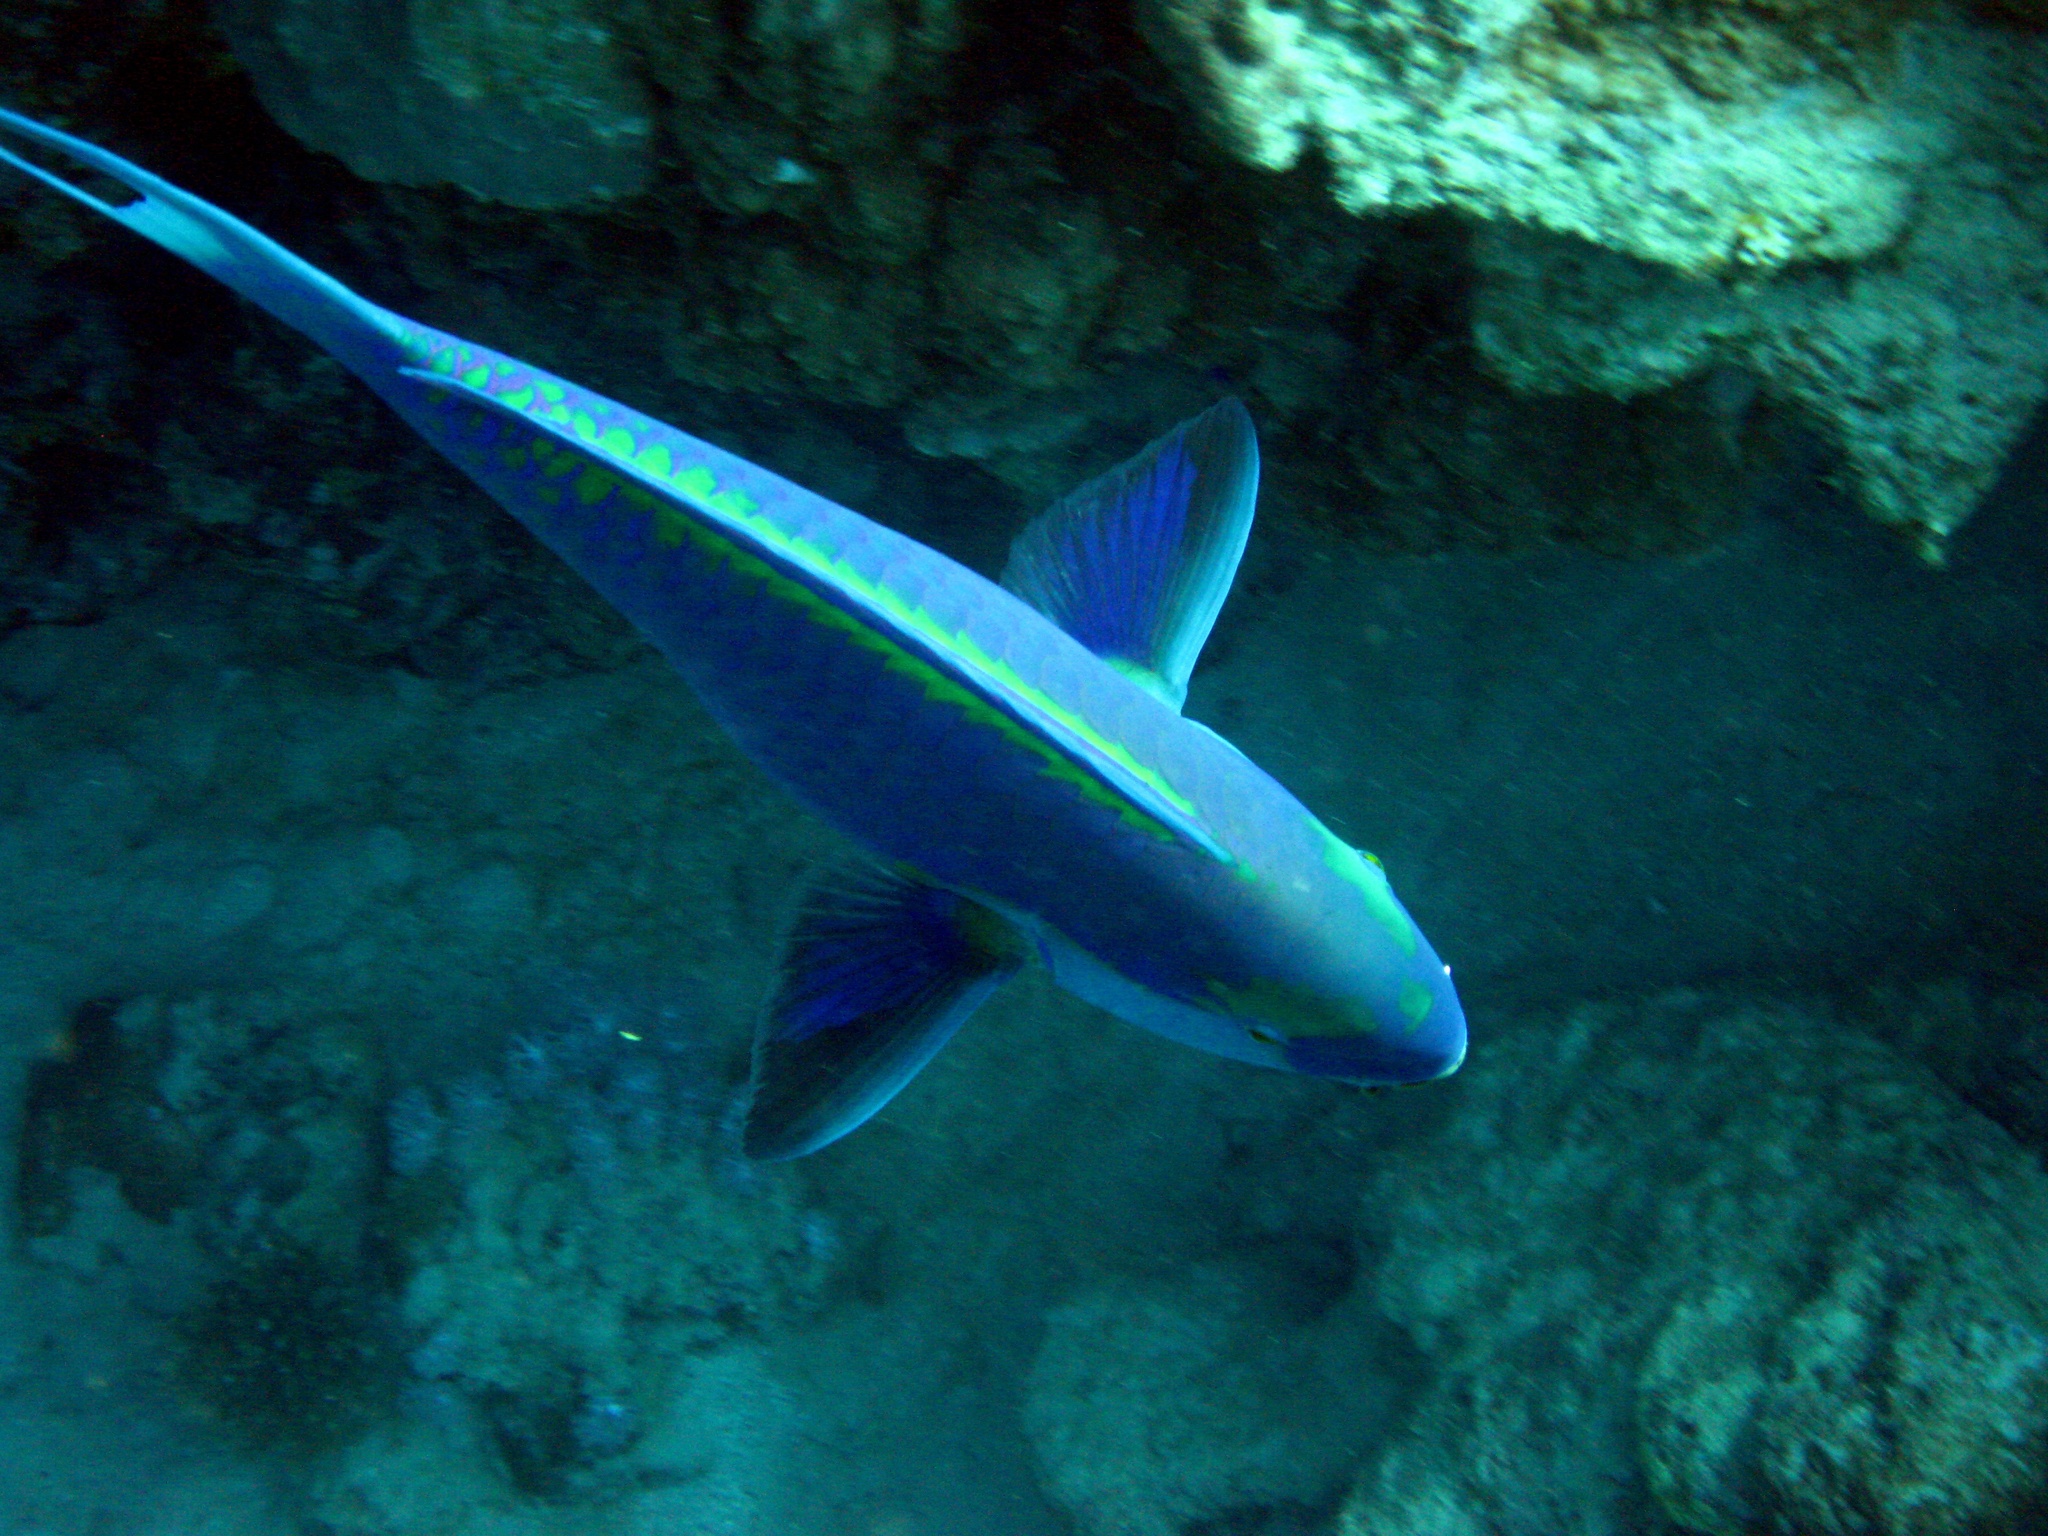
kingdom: Animalia
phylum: Chordata
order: Perciformes
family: Scaridae
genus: Chlorurus
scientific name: Chlorurus gibbus
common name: Heavybeak parrotfish
